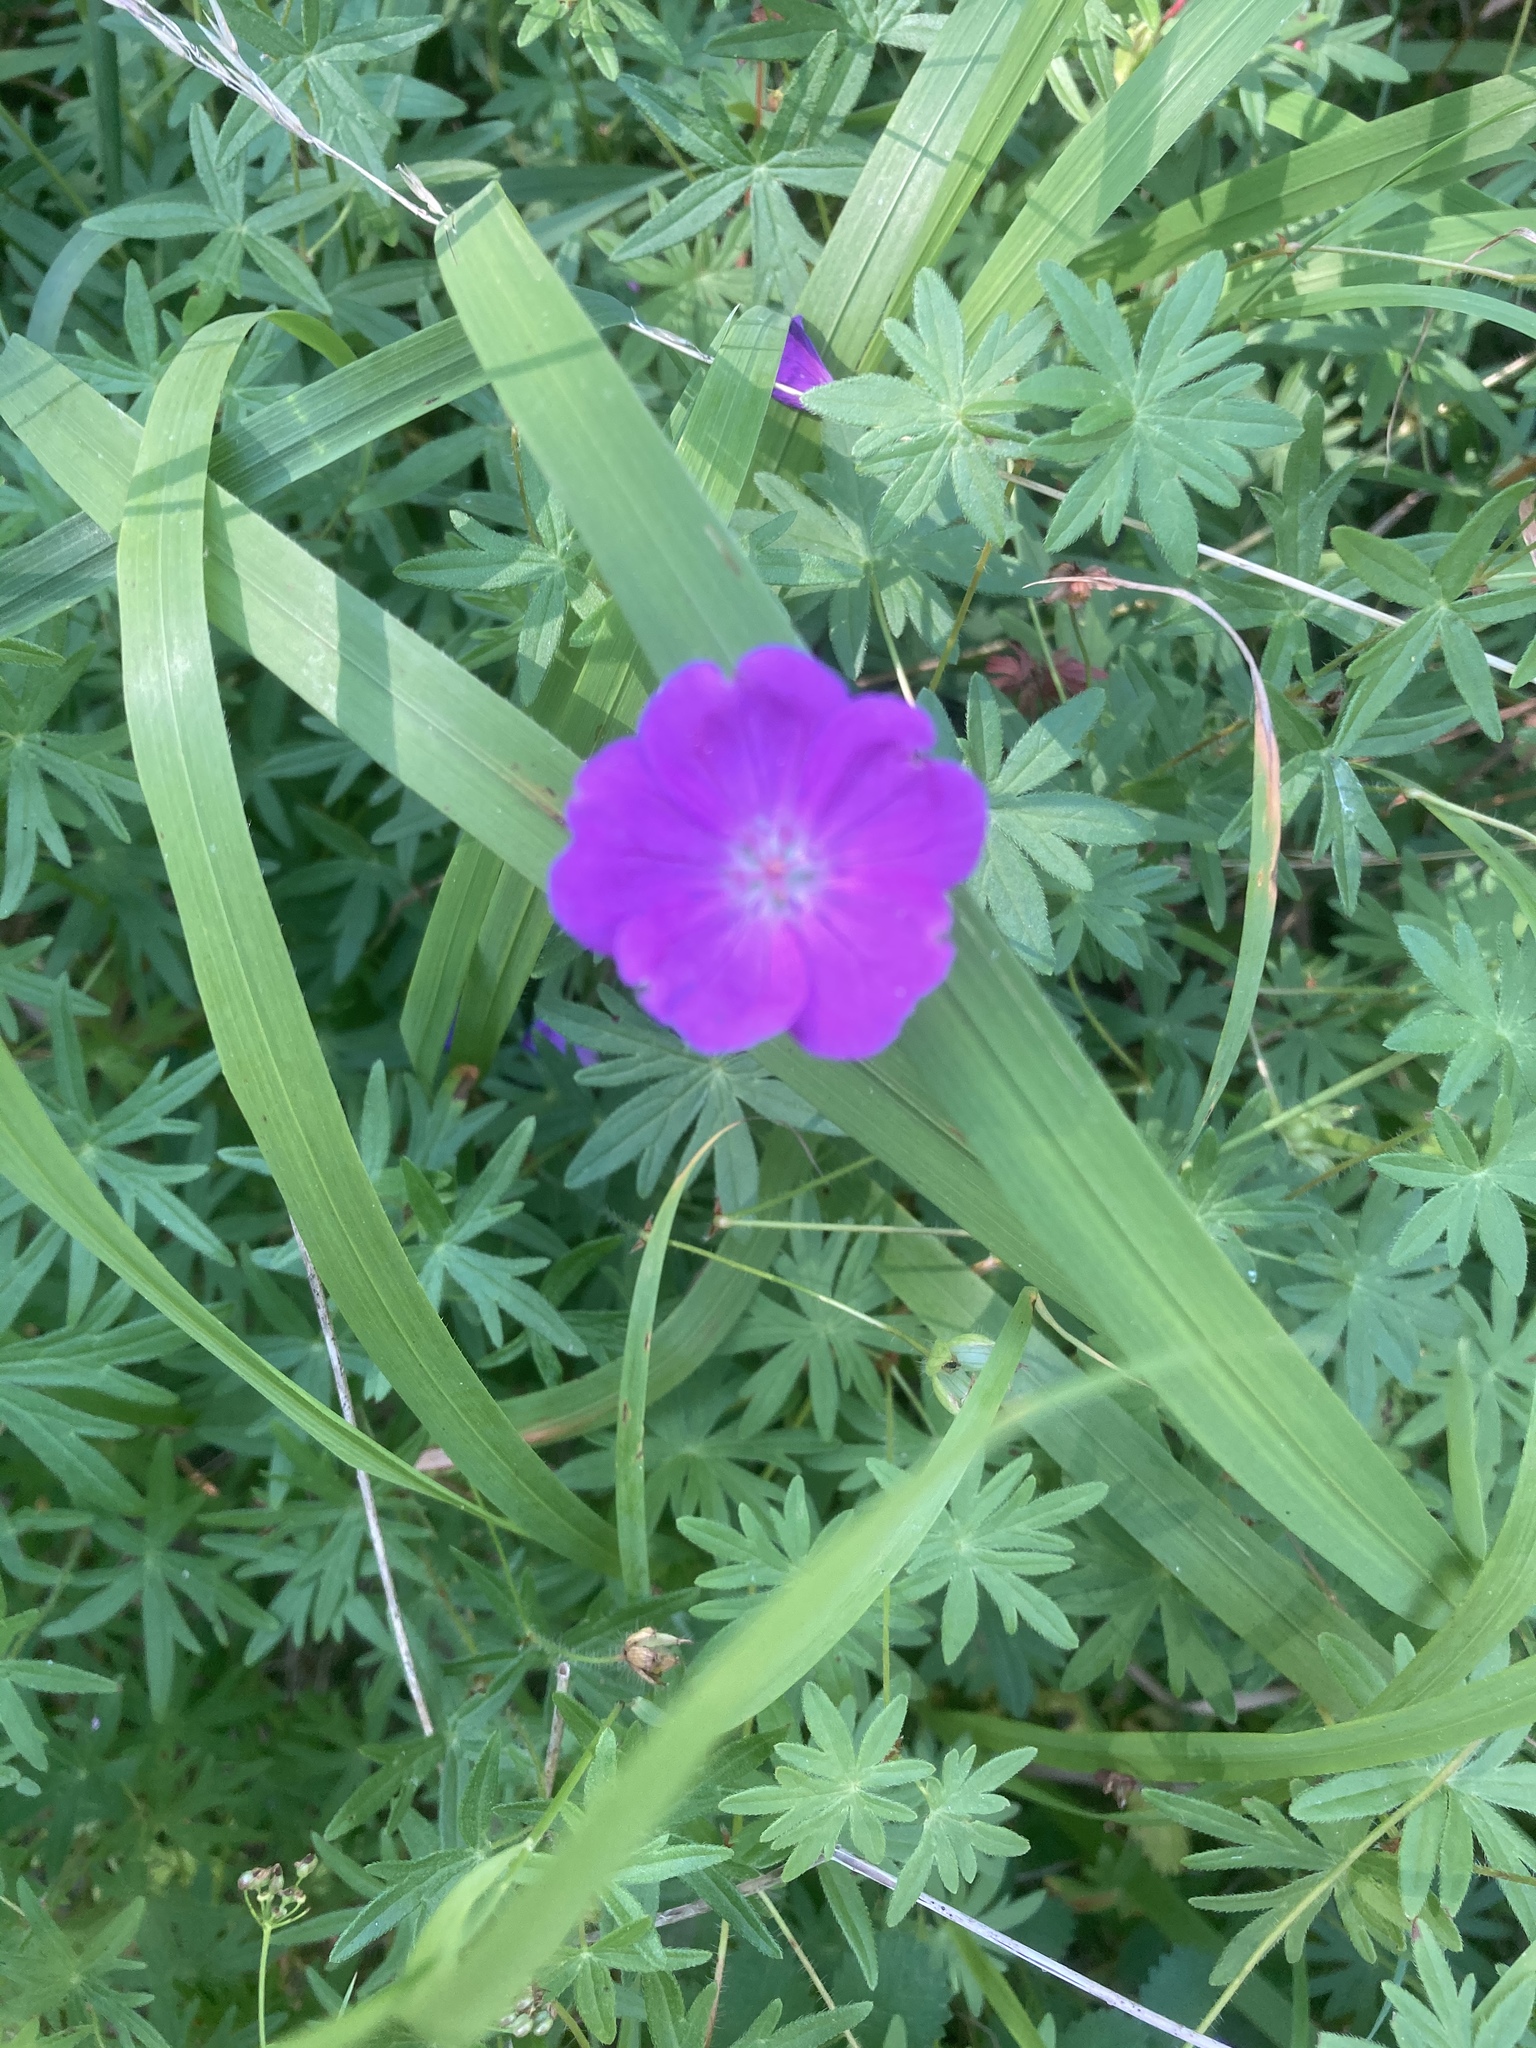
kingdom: Plantae
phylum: Tracheophyta
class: Magnoliopsida
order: Geraniales
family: Geraniaceae
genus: Geranium
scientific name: Geranium sanguineum
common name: Bloody crane's-bill
